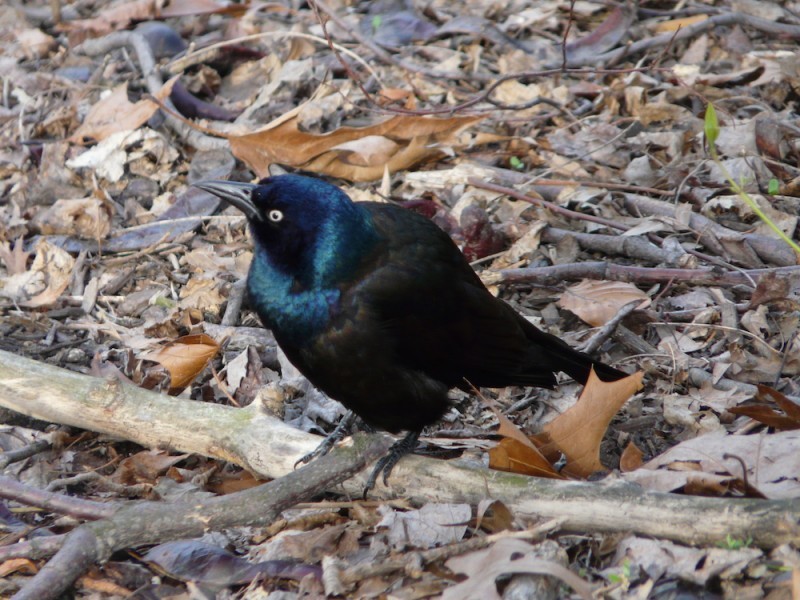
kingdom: Animalia
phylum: Chordata
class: Aves
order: Passeriformes
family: Icteridae
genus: Quiscalus
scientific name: Quiscalus quiscula
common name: Common grackle
